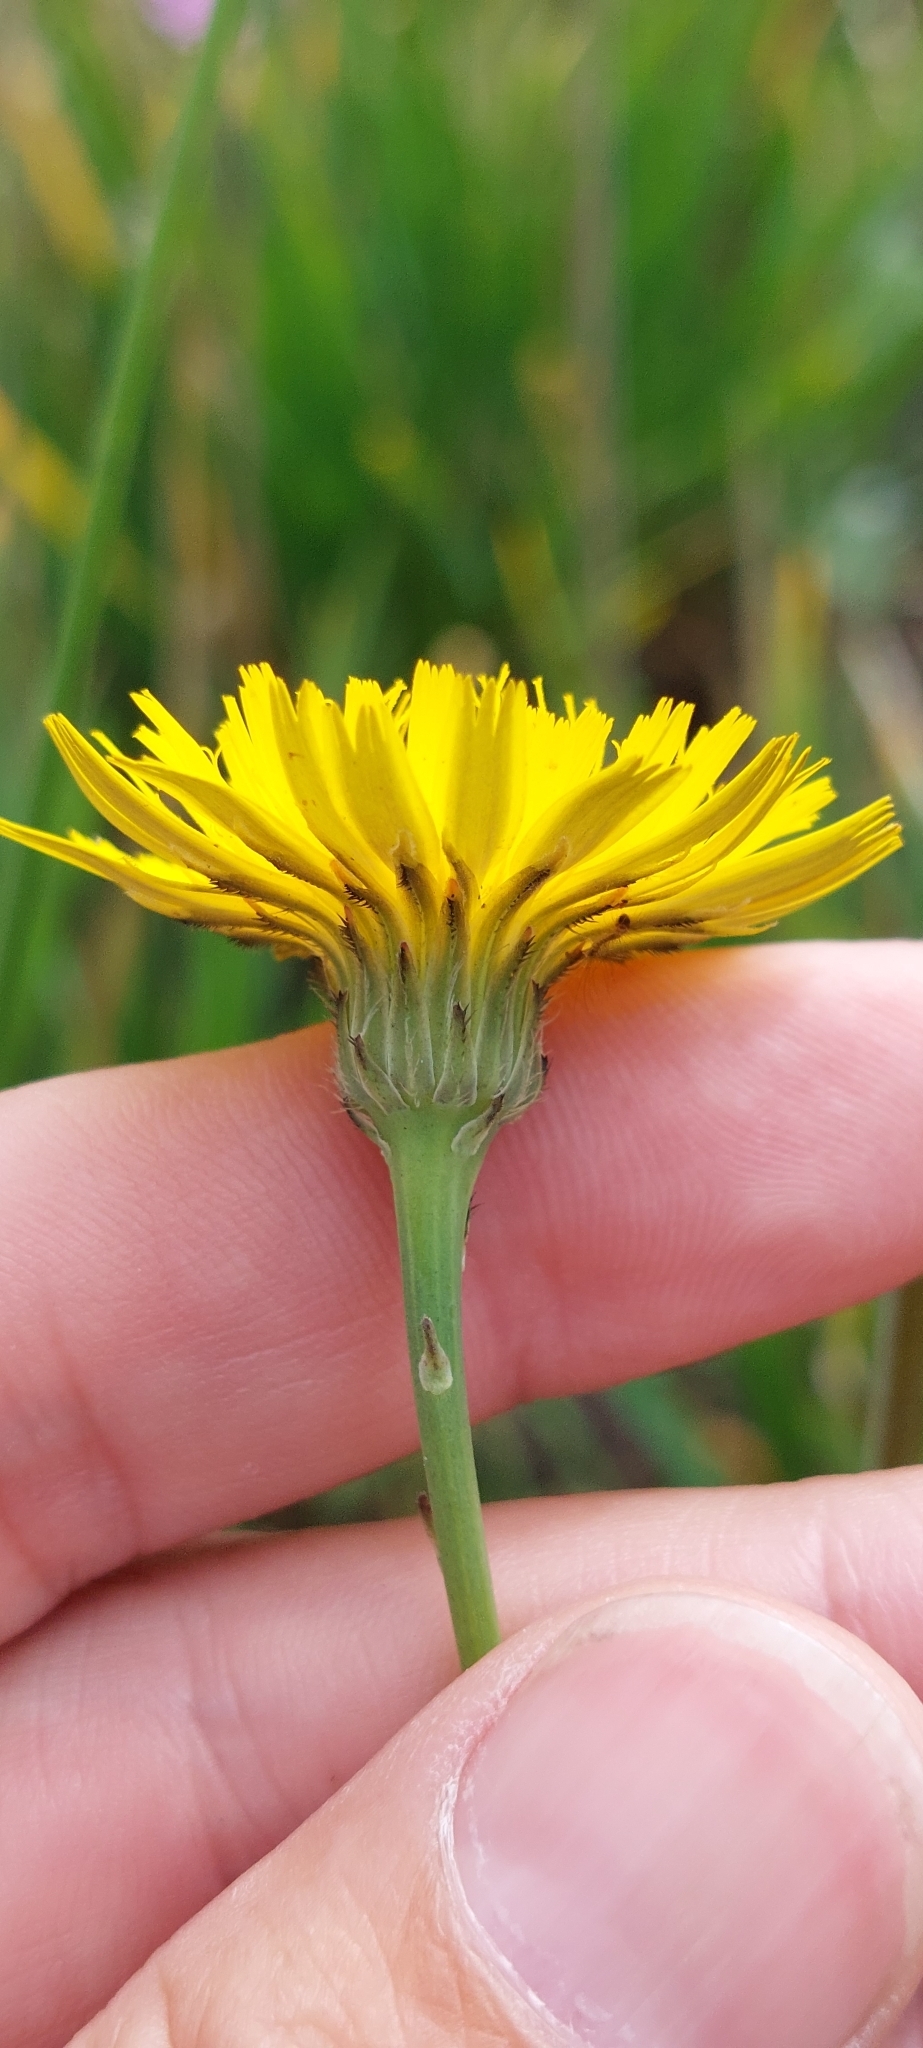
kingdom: Plantae
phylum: Tracheophyta
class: Magnoliopsida
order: Asterales
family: Asteraceae
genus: Hypochaeris
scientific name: Hypochaeris radicata
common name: Flatweed
